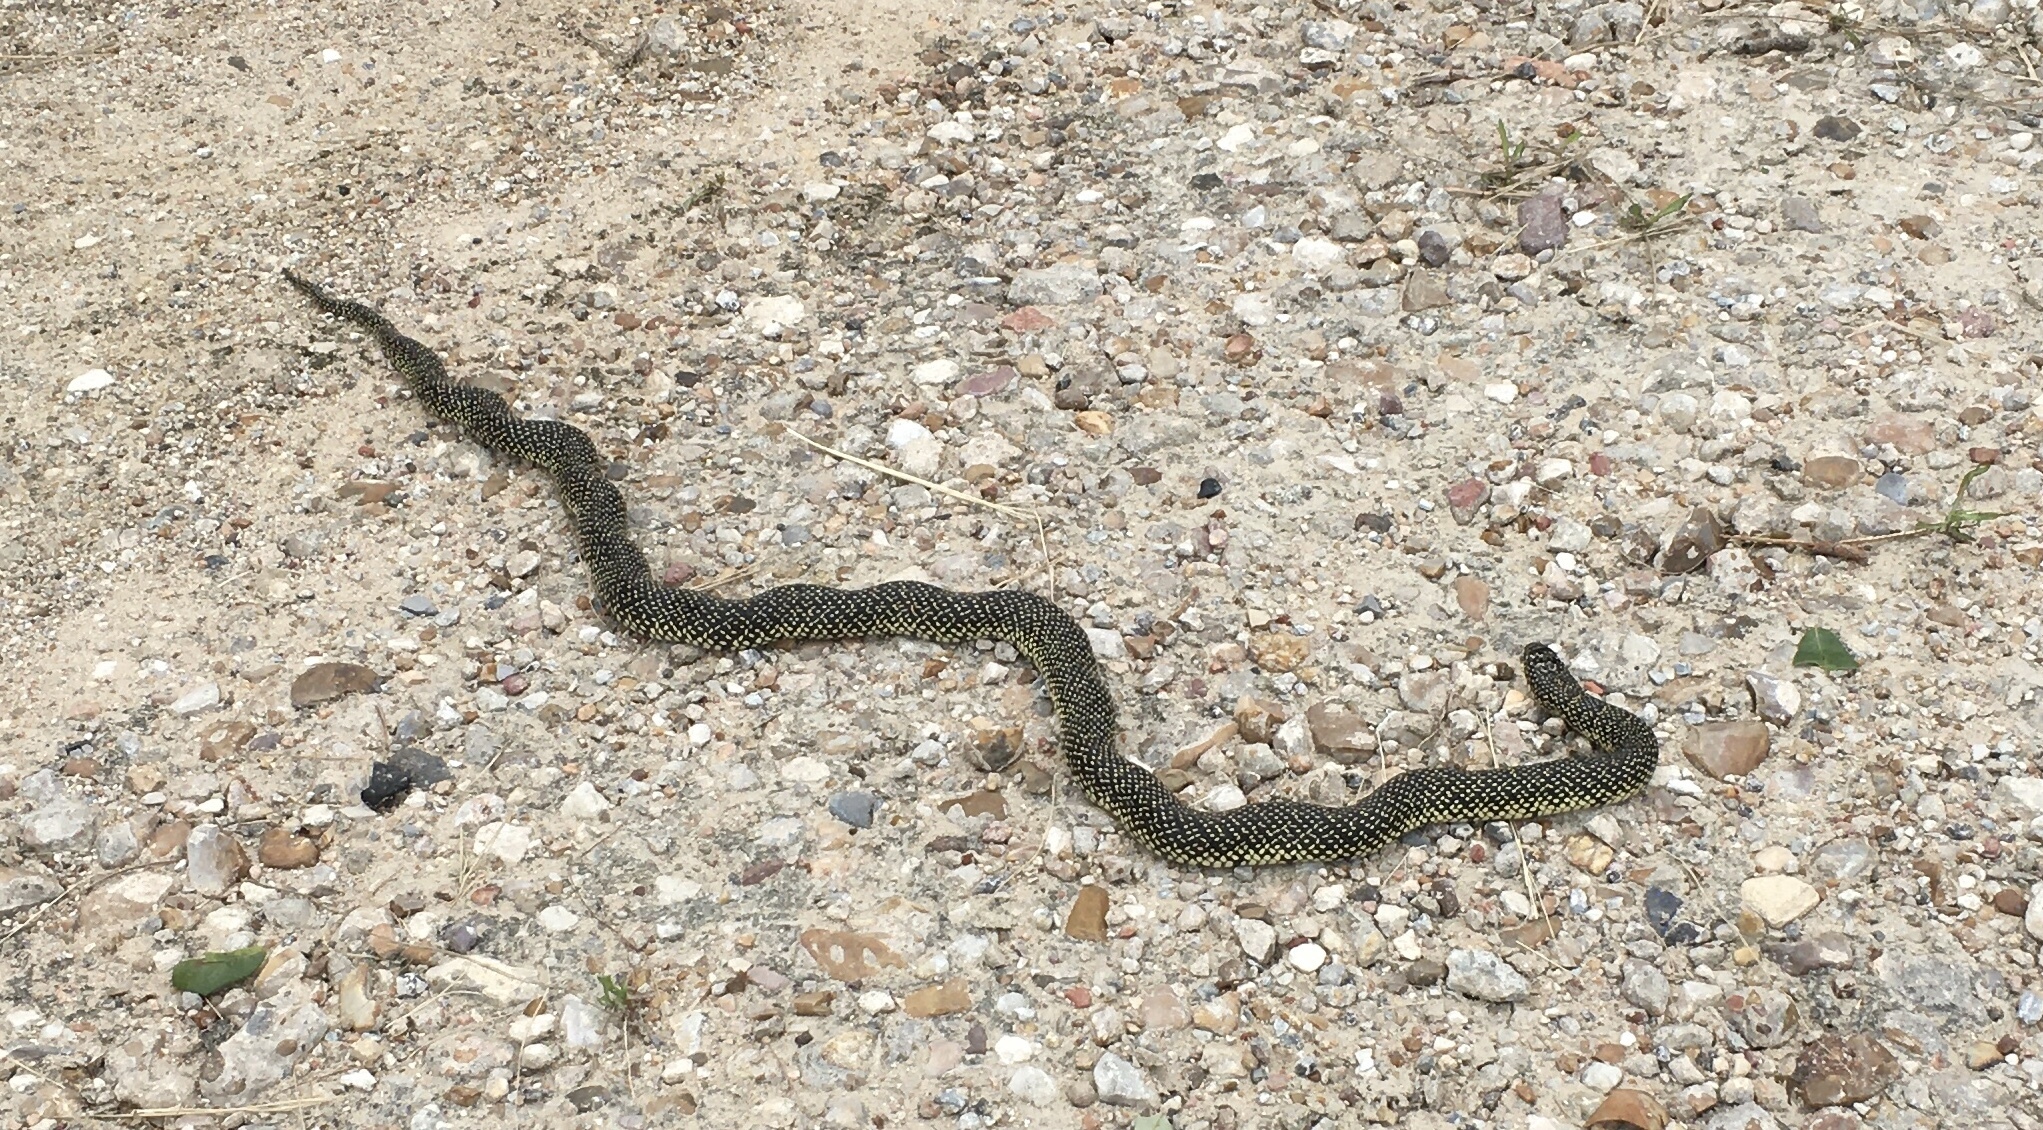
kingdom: Animalia
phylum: Chordata
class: Squamata
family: Colubridae
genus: Lampropeltis
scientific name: Lampropeltis holbrooki
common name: Speckled kingsnake
